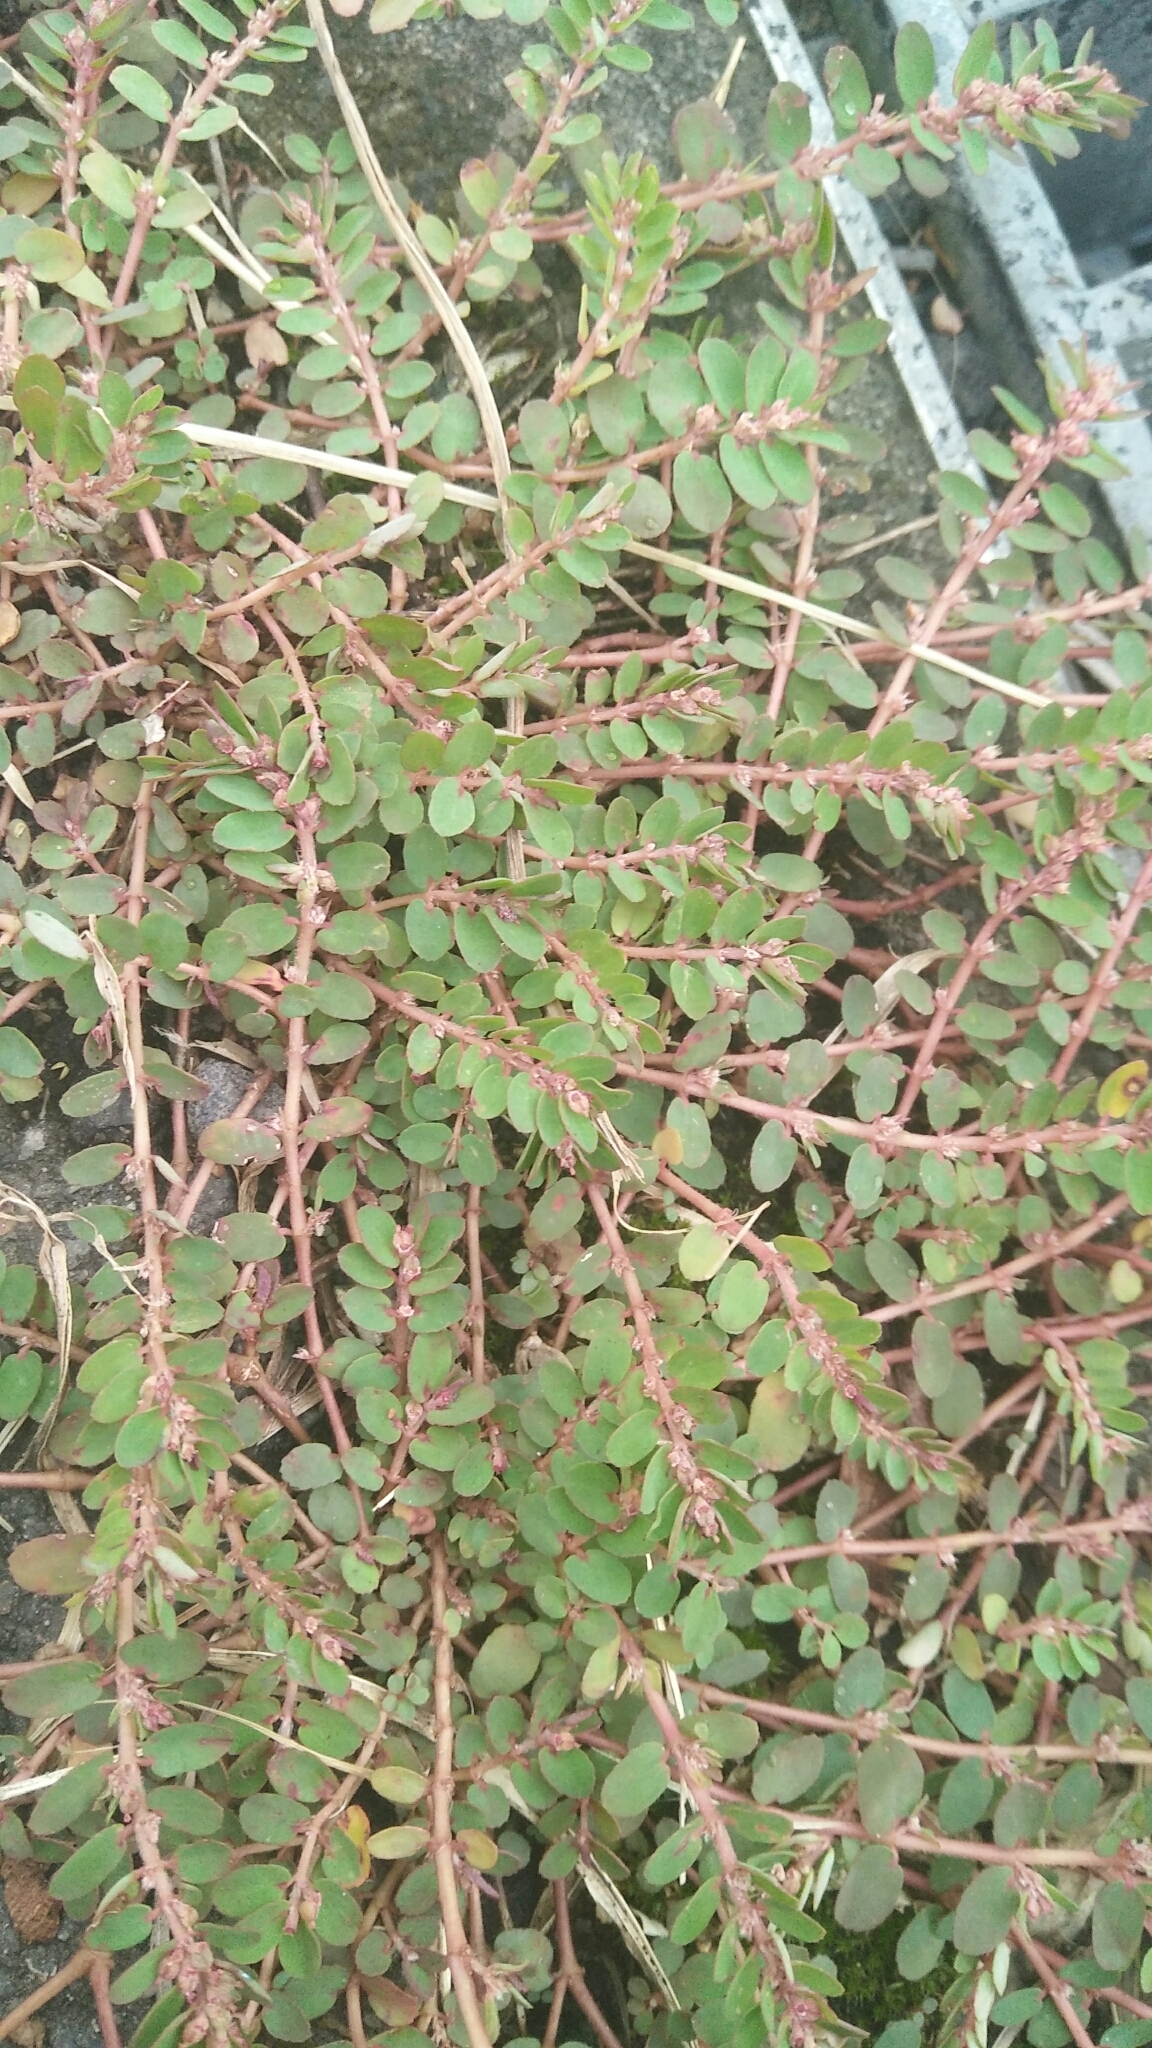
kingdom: Plantae
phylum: Tracheophyta
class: Magnoliopsida
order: Malpighiales
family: Euphorbiaceae
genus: Euphorbia
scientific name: Euphorbia thymifolia
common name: Gulf sandmat
